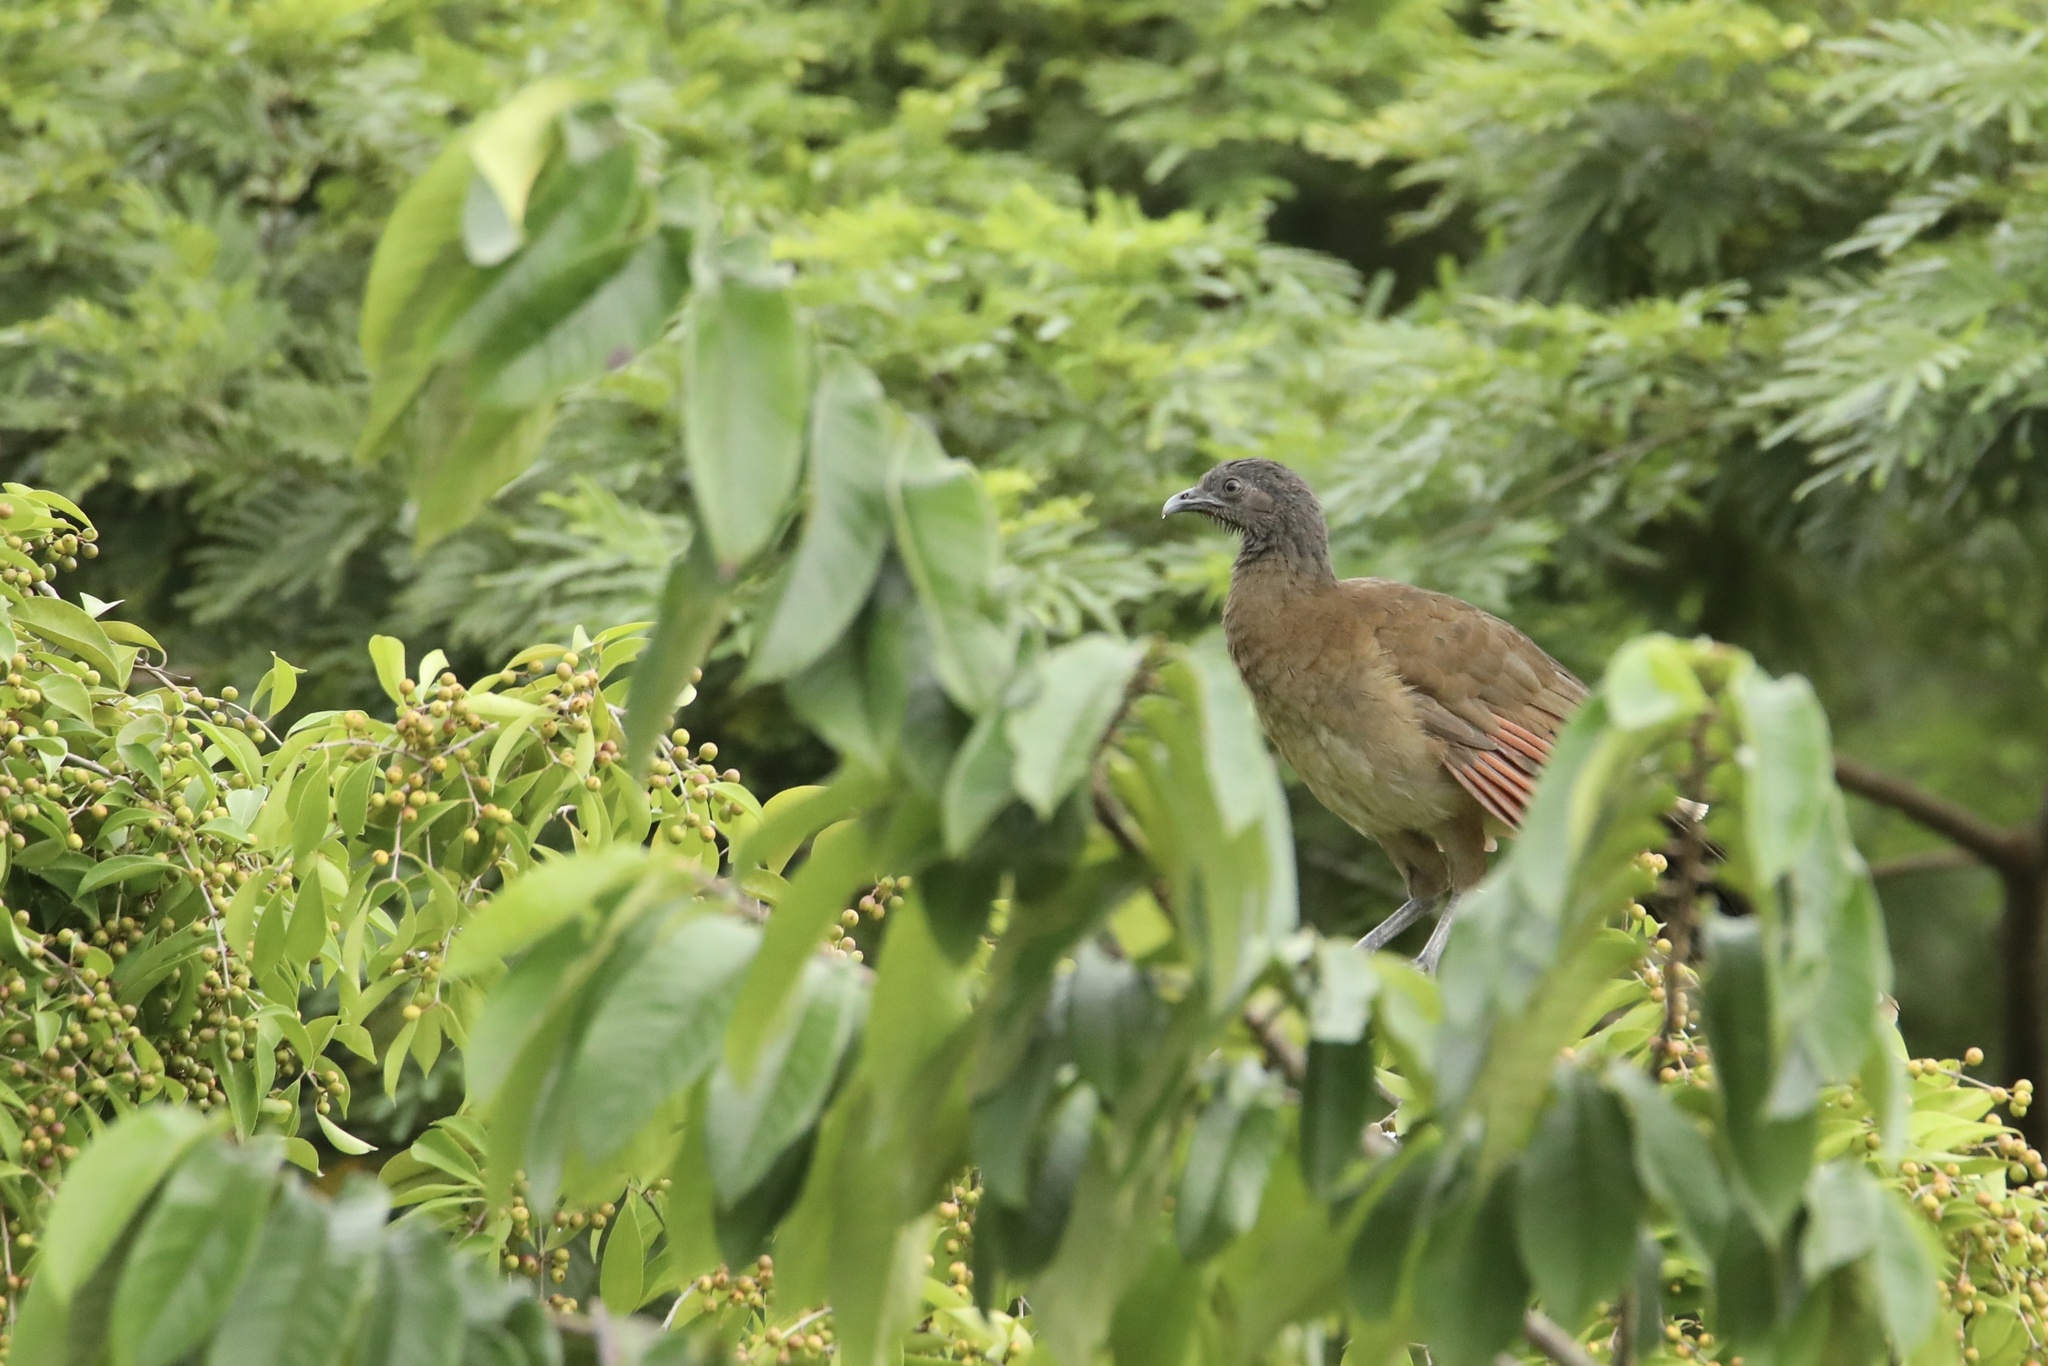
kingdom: Animalia
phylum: Chordata
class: Aves
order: Galliformes
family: Cracidae
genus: Ortalis
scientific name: Ortalis cinereiceps
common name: Grey-headed chachalaca
